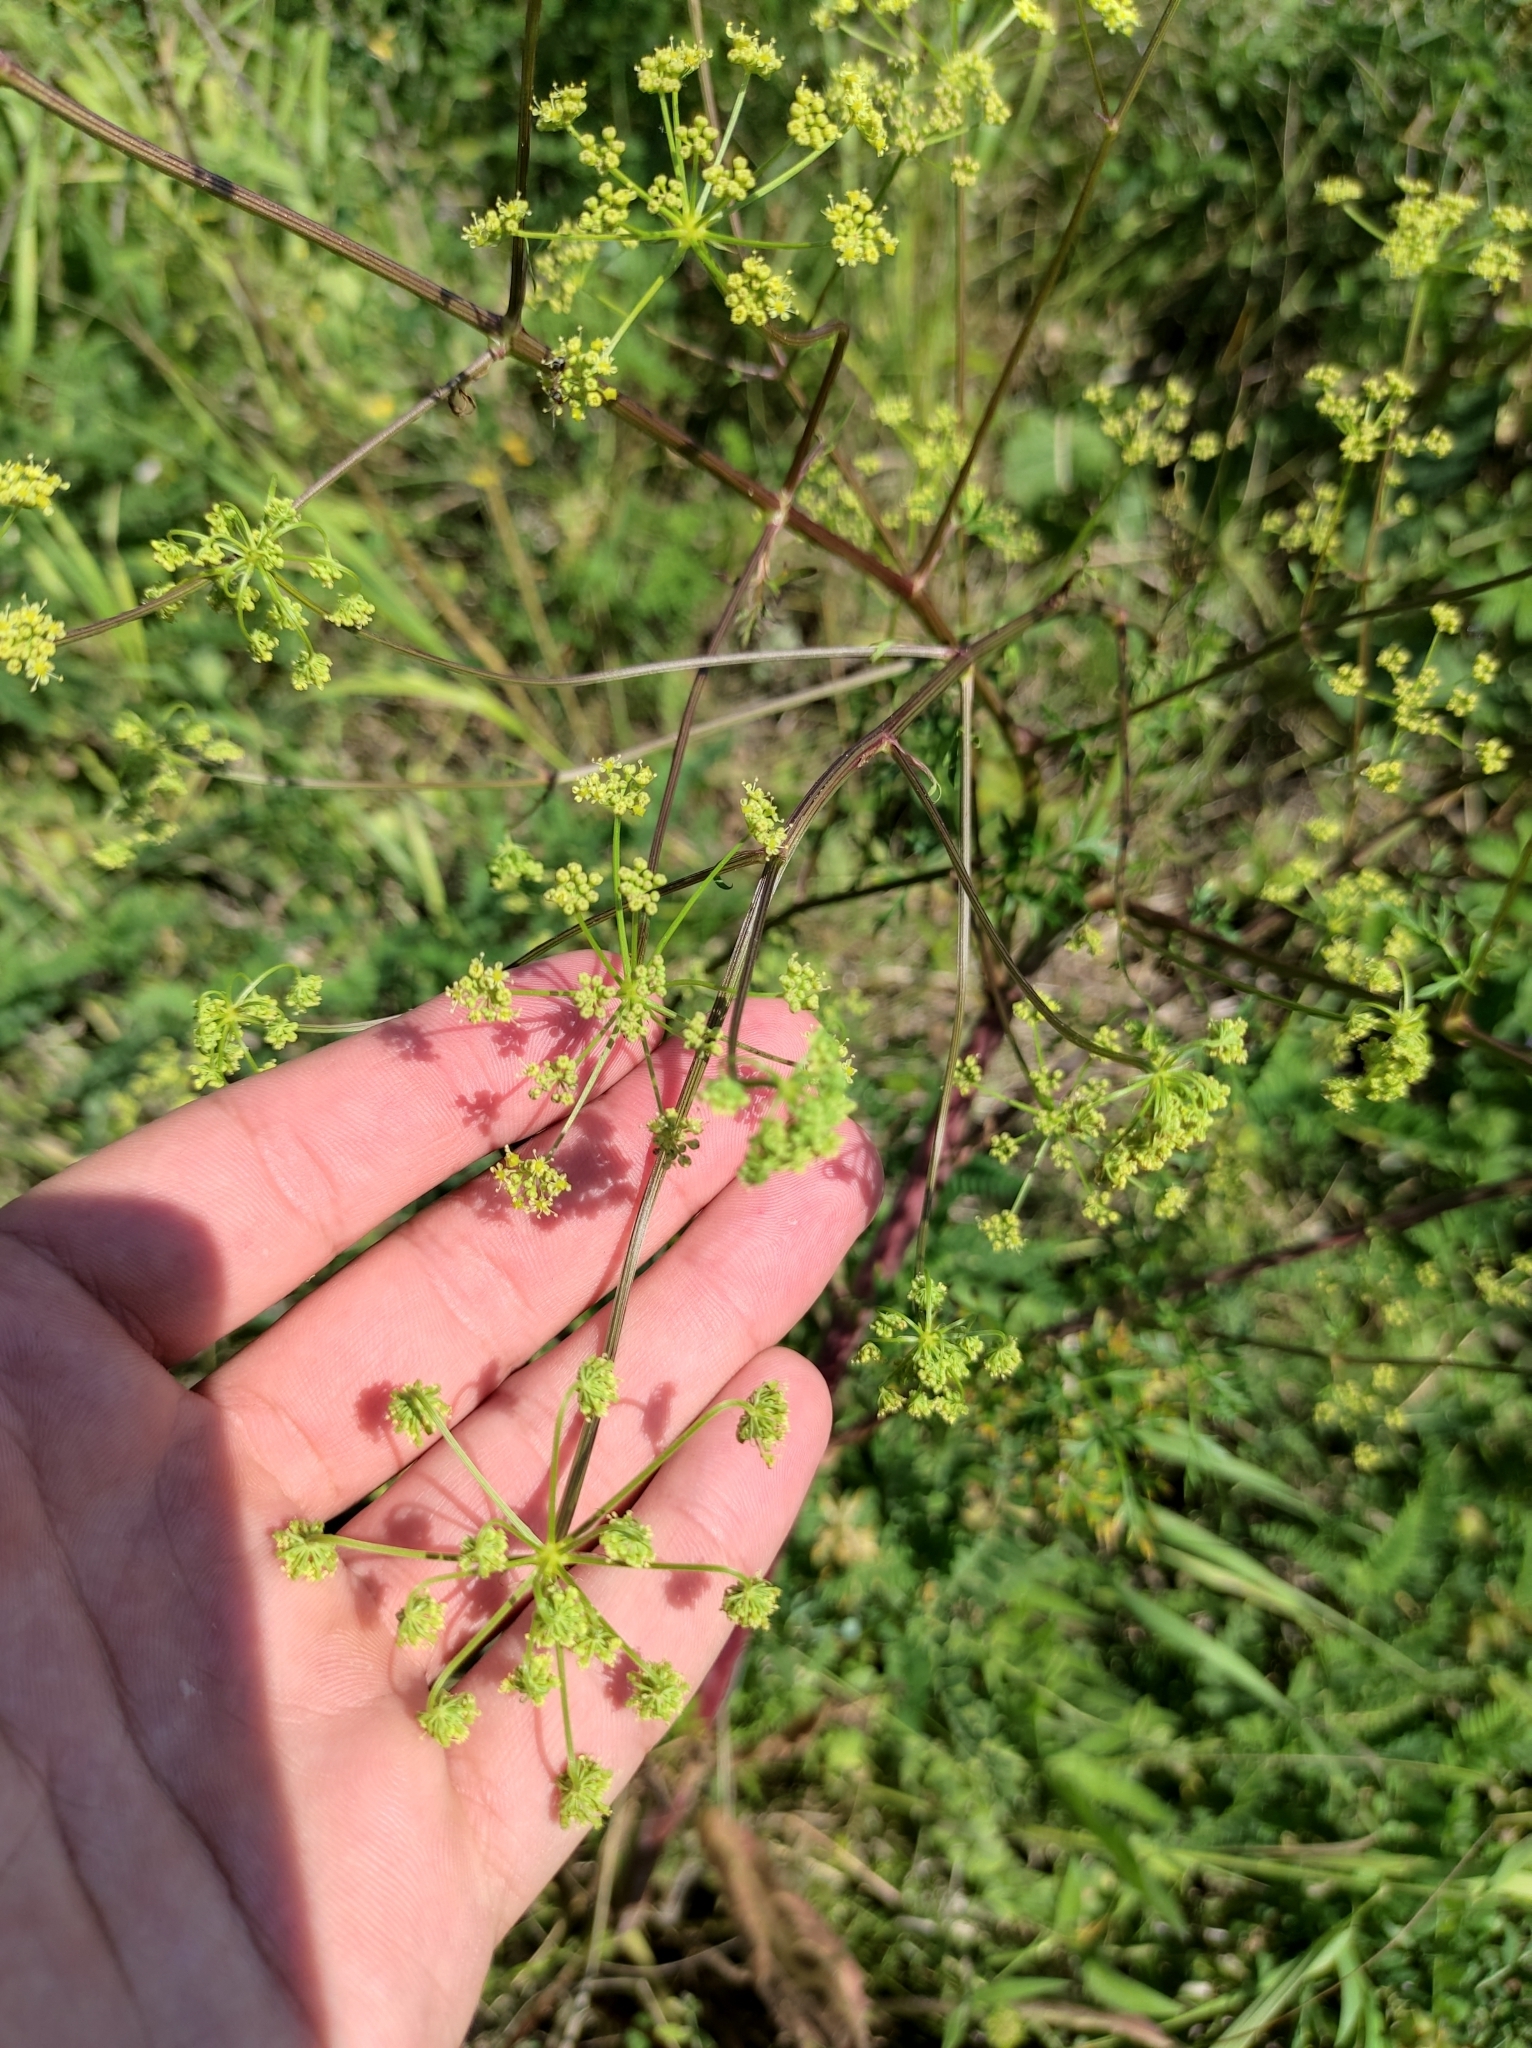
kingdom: Plantae
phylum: Tracheophyta
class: Magnoliopsida
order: Apiales
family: Apiaceae
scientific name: Apiaceae
